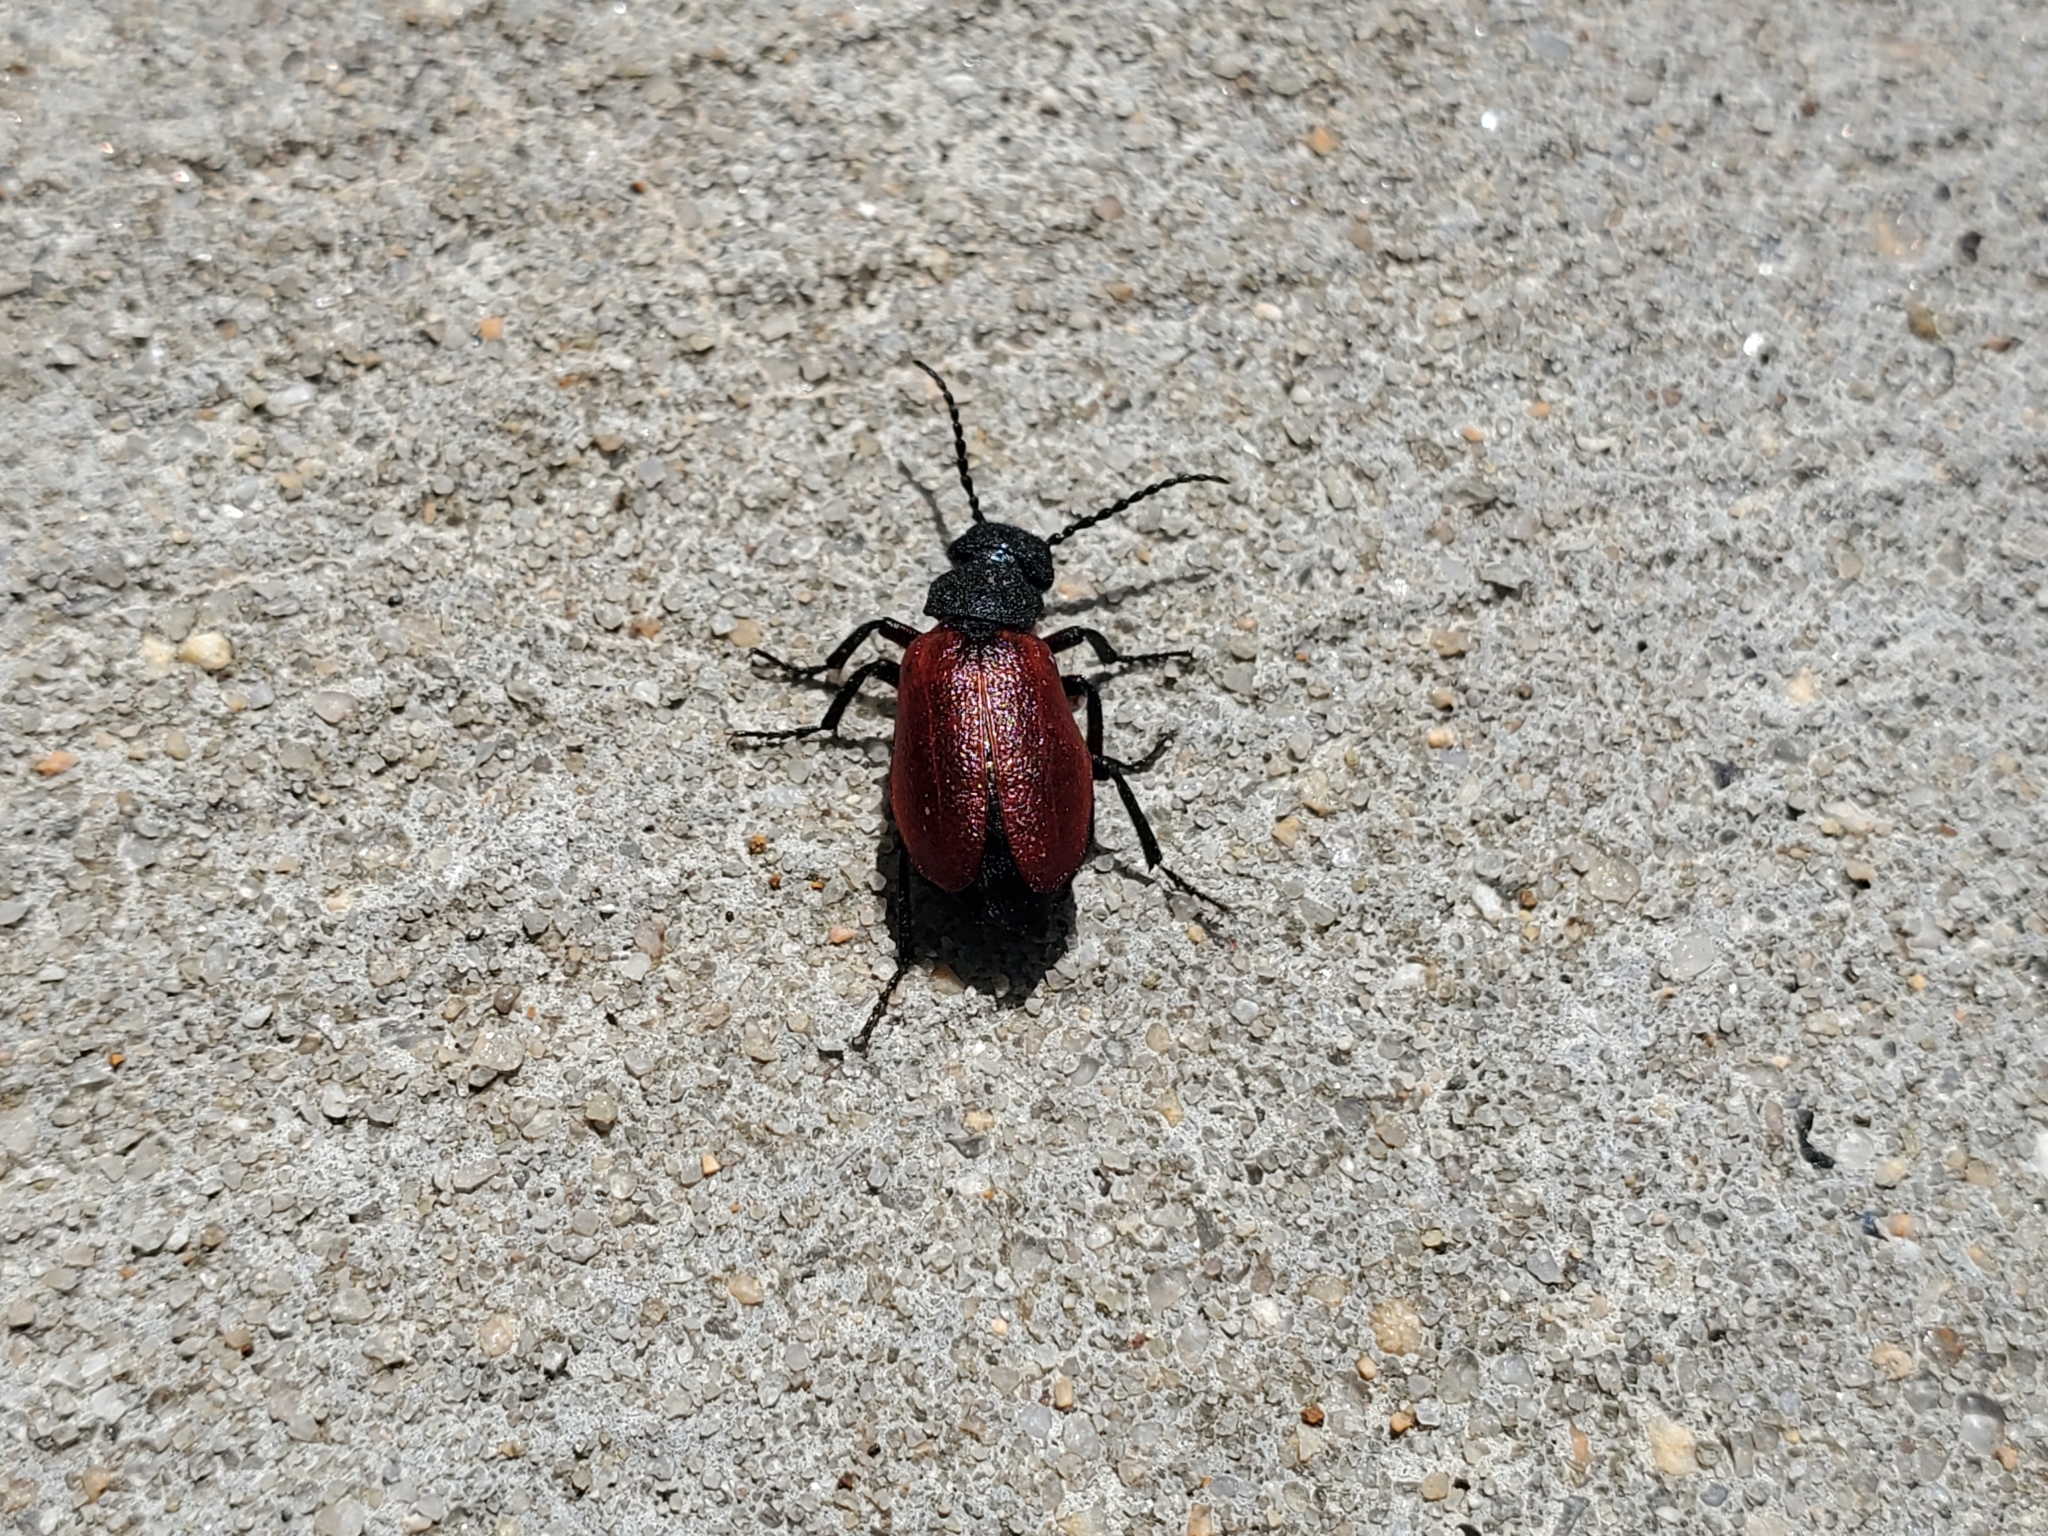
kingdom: Animalia
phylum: Arthropoda
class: Insecta
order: Coleoptera
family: Meloidae
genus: Tricrania
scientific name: Tricrania sanguinipennis
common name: Blood-winged blister beetle
